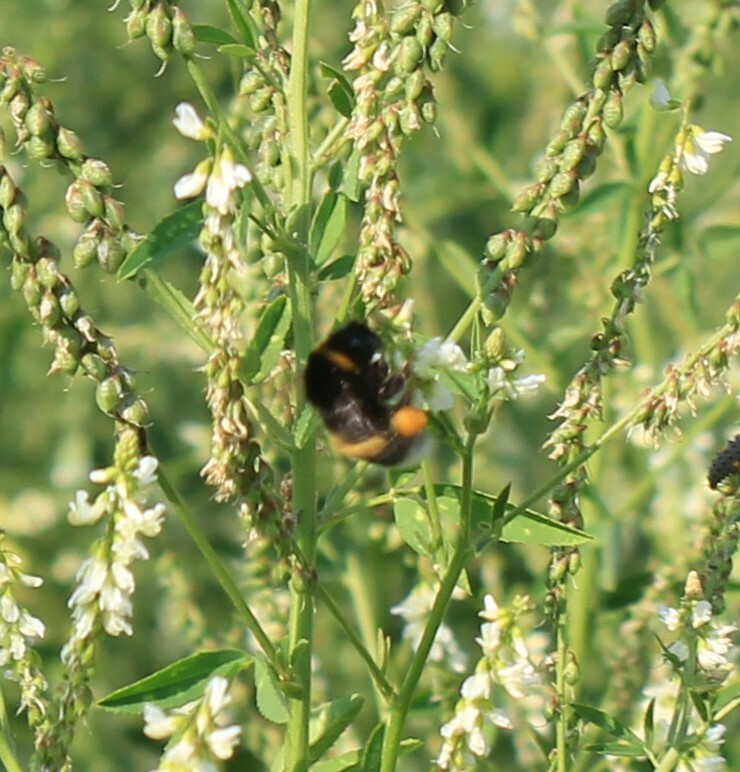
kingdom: Animalia
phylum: Arthropoda
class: Insecta
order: Hymenoptera
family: Apidae
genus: Bombus
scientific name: Bombus
